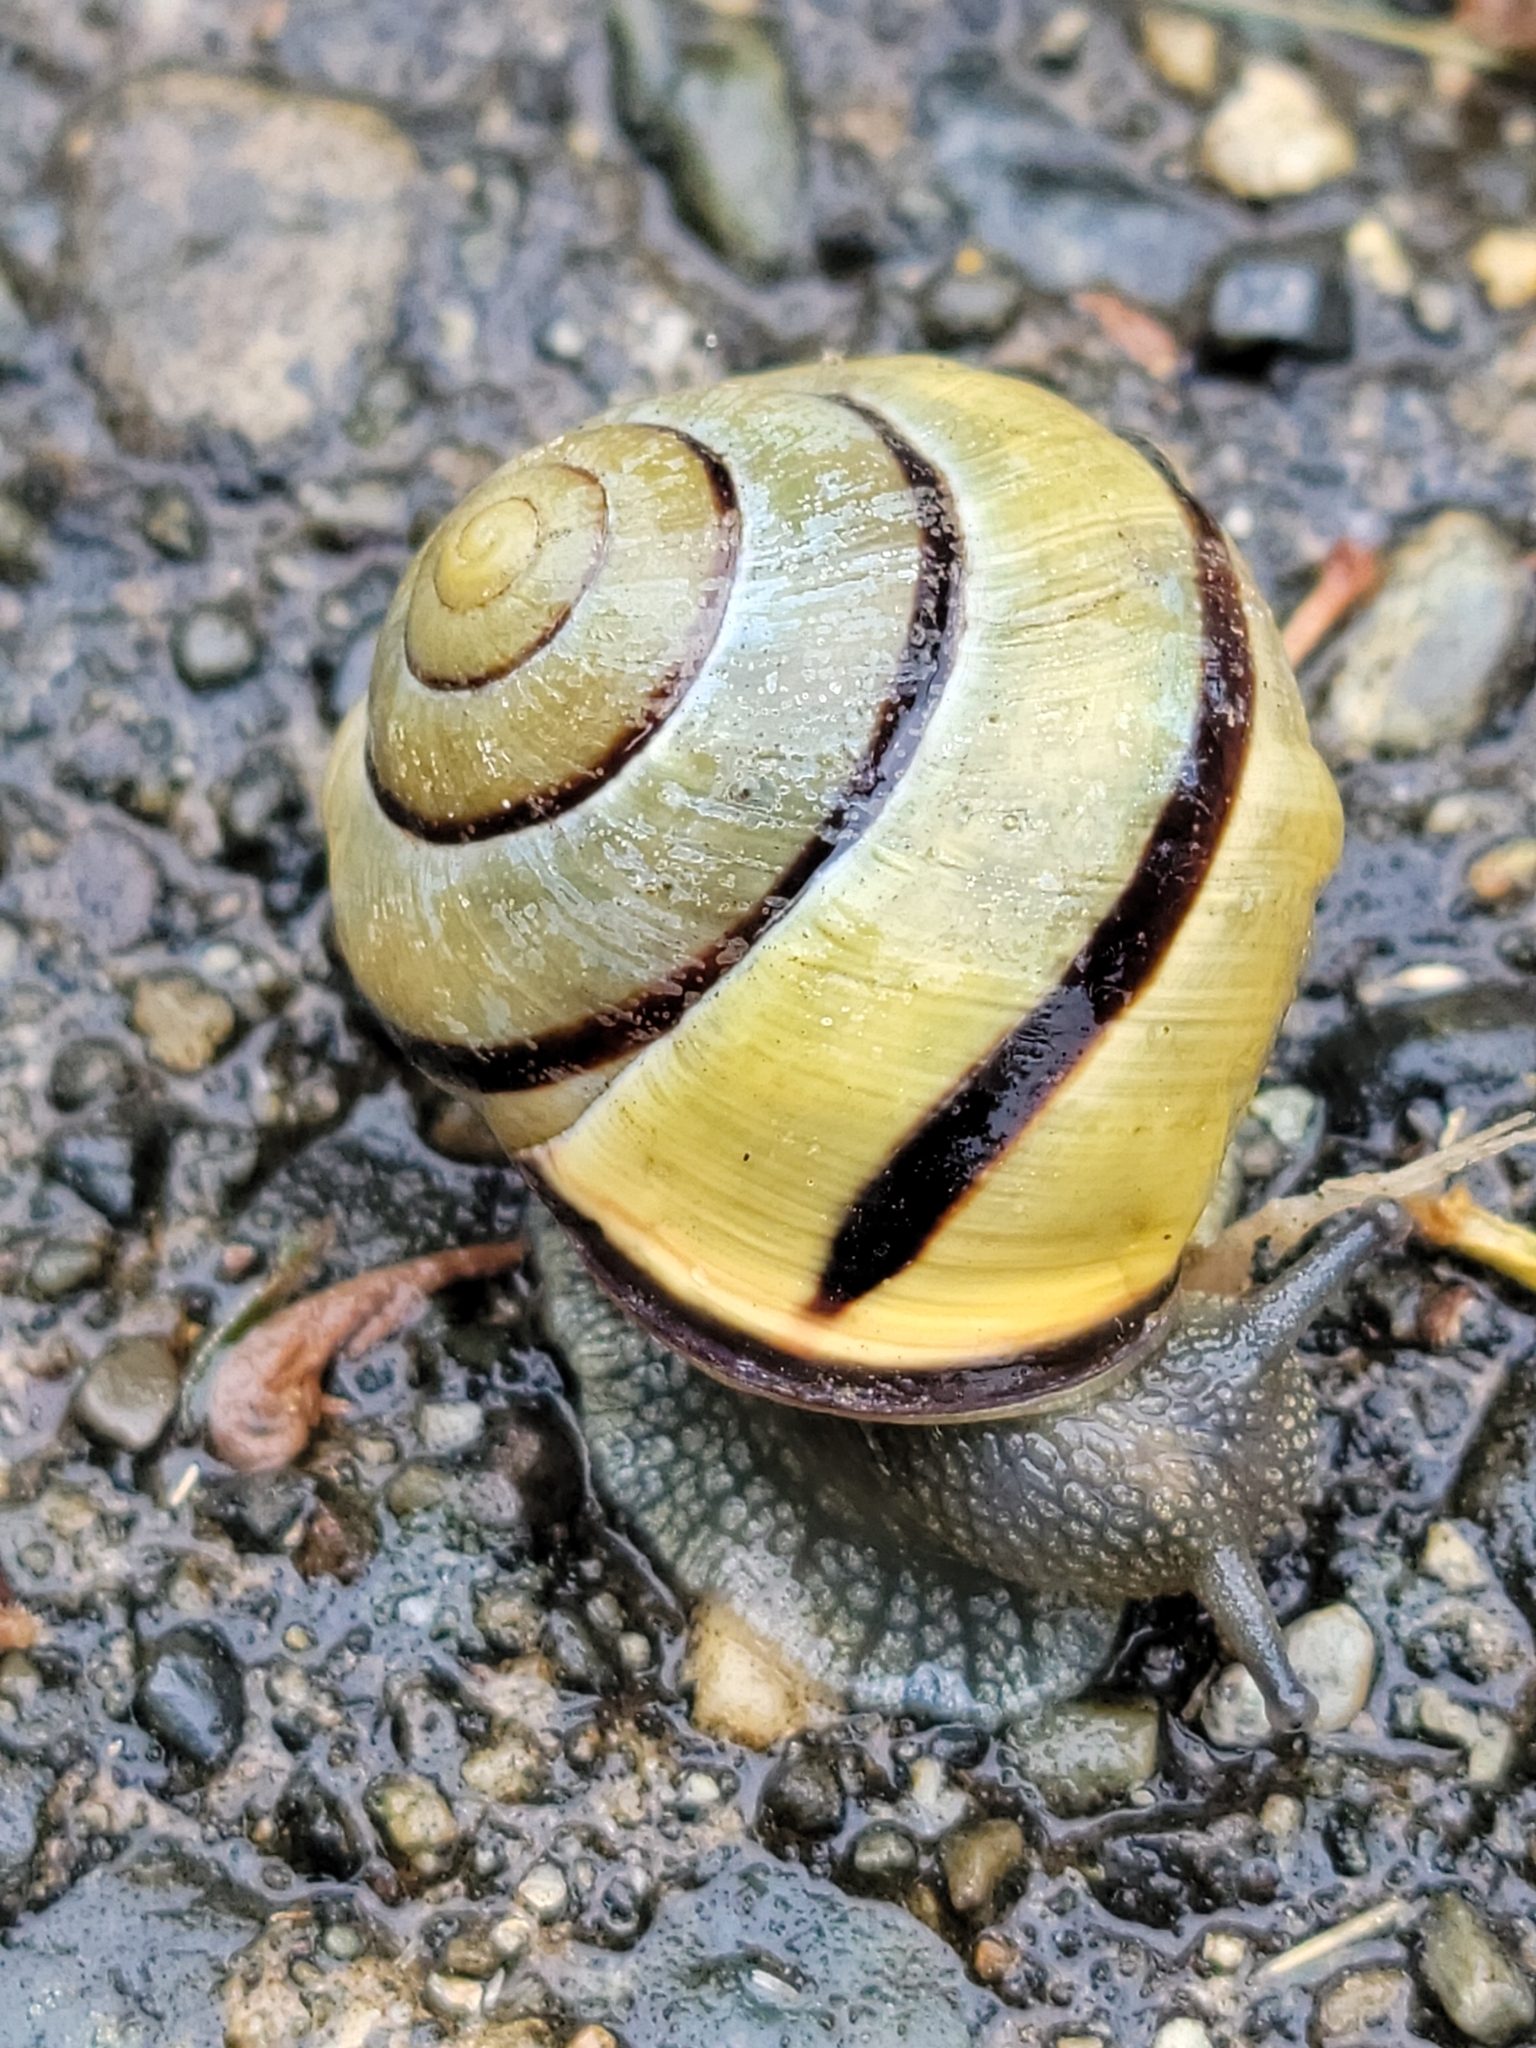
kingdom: Animalia
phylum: Mollusca
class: Gastropoda
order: Stylommatophora
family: Helicidae
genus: Cepaea
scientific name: Cepaea nemoralis
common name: Grovesnail
